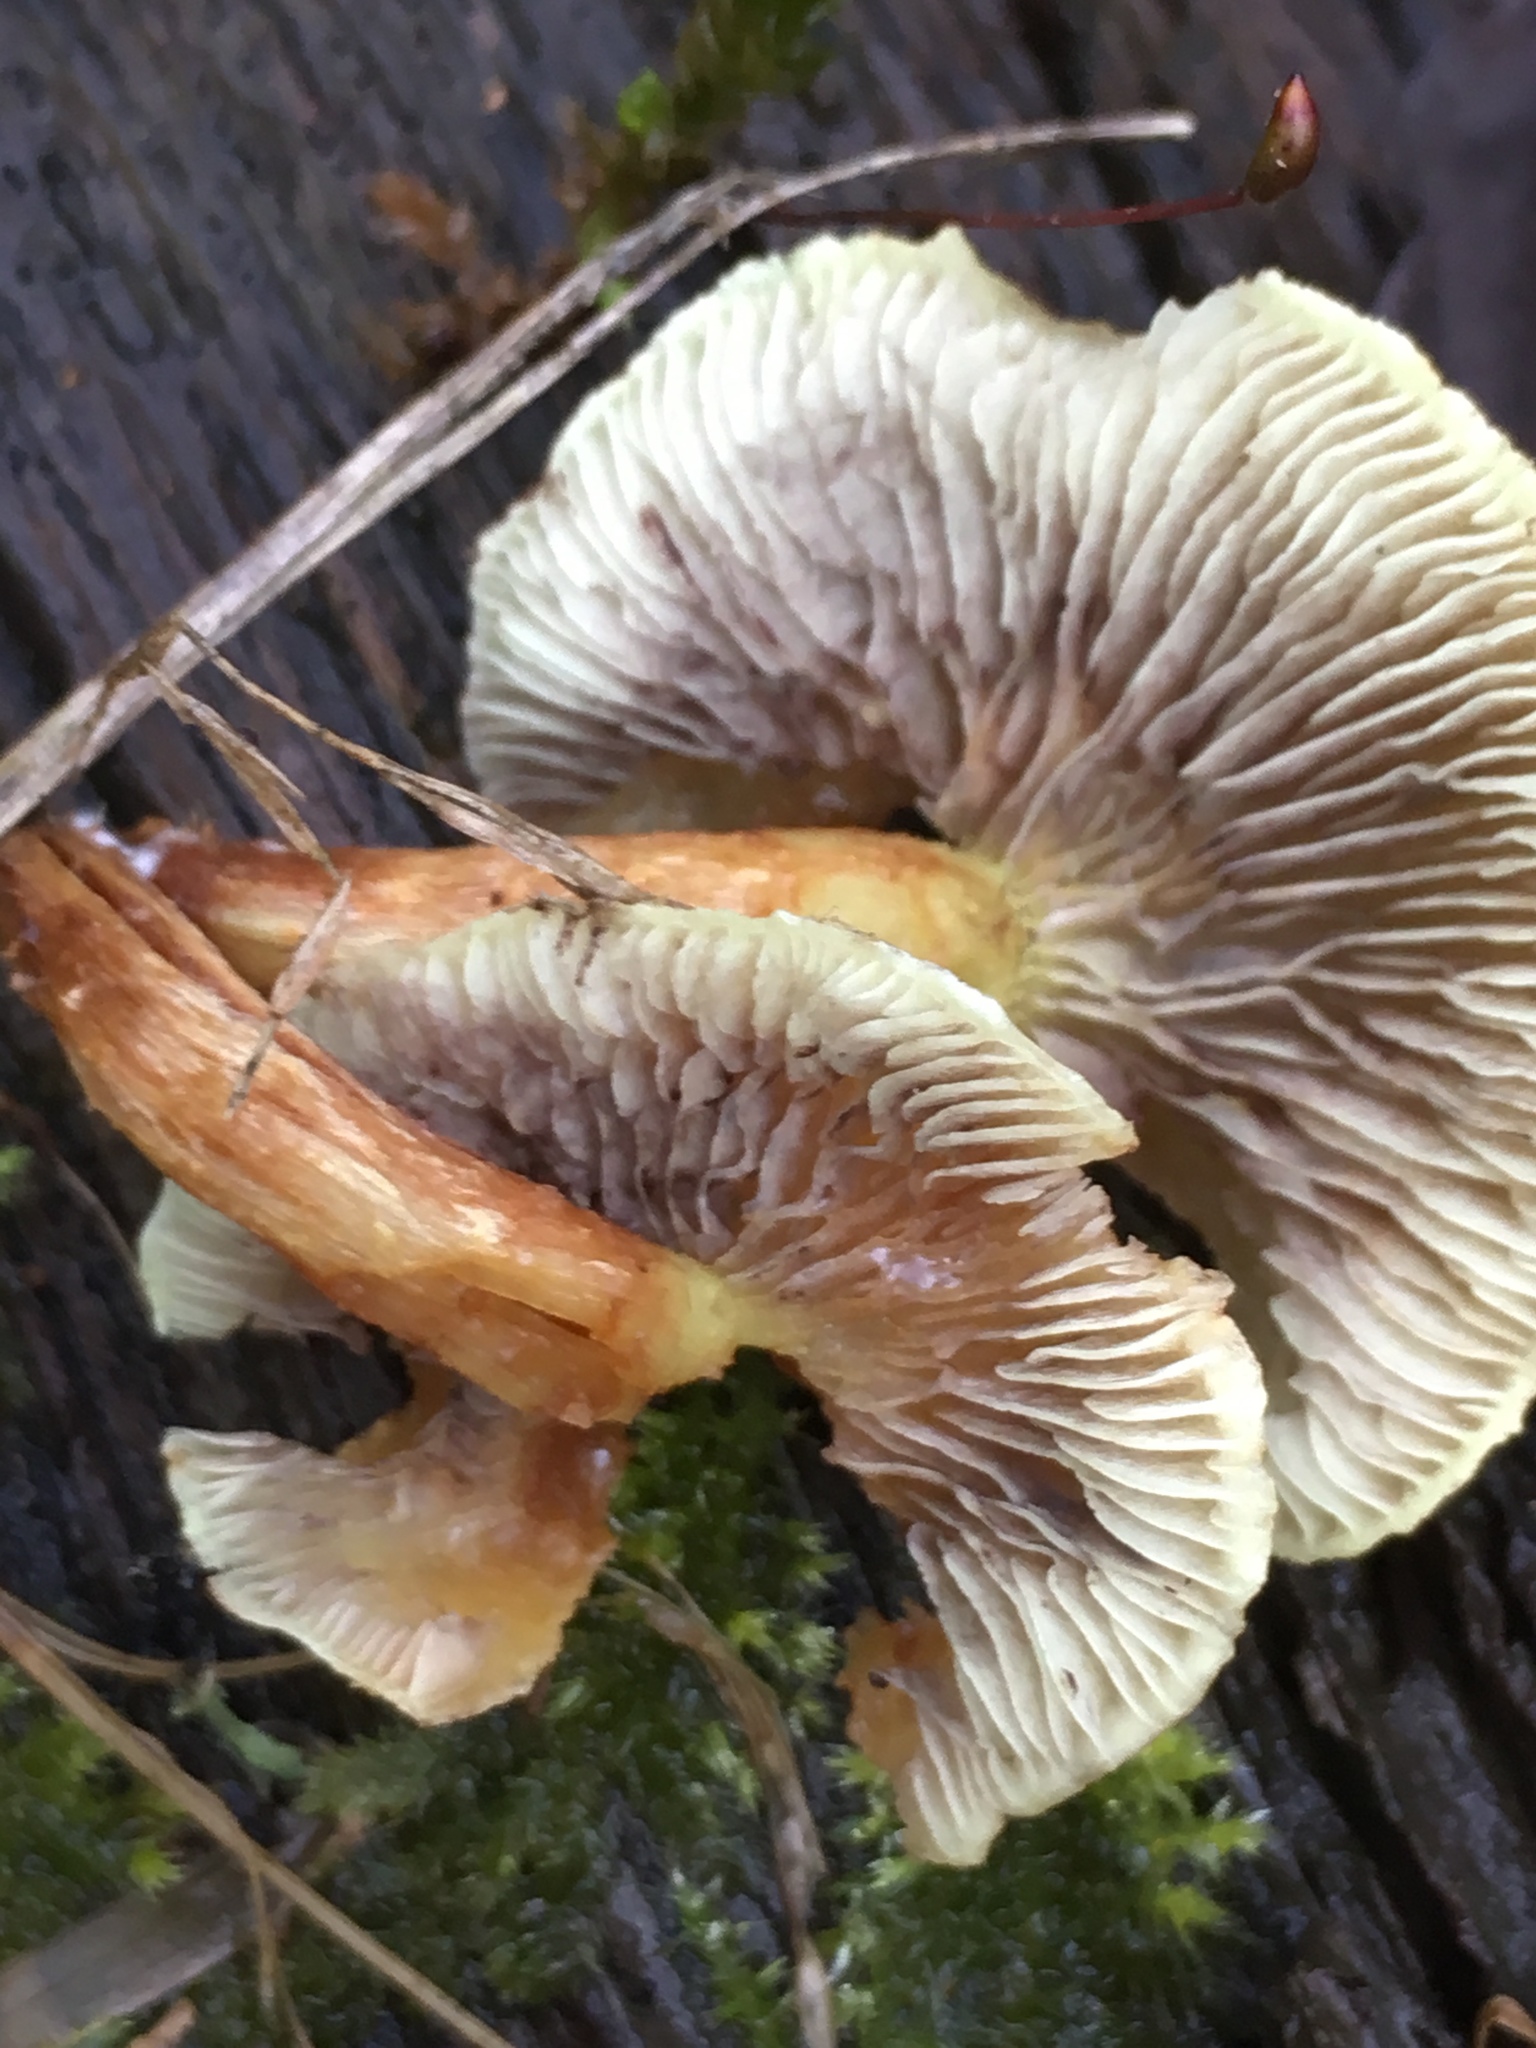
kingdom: Fungi
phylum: Basidiomycota
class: Agaricomycetes
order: Agaricales
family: Strophariaceae
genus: Hypholoma
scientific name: Hypholoma fasciculare
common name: Sulphur tuft
